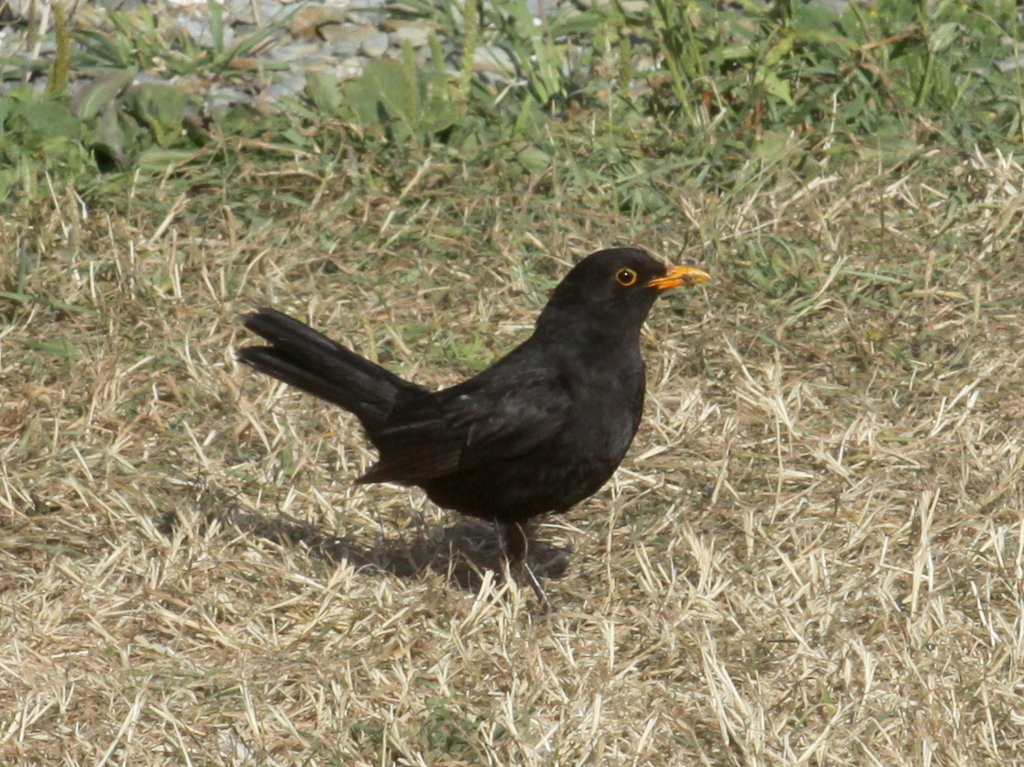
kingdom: Animalia
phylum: Chordata
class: Aves
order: Passeriformes
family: Turdidae
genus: Turdus
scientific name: Turdus merula
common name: Common blackbird
